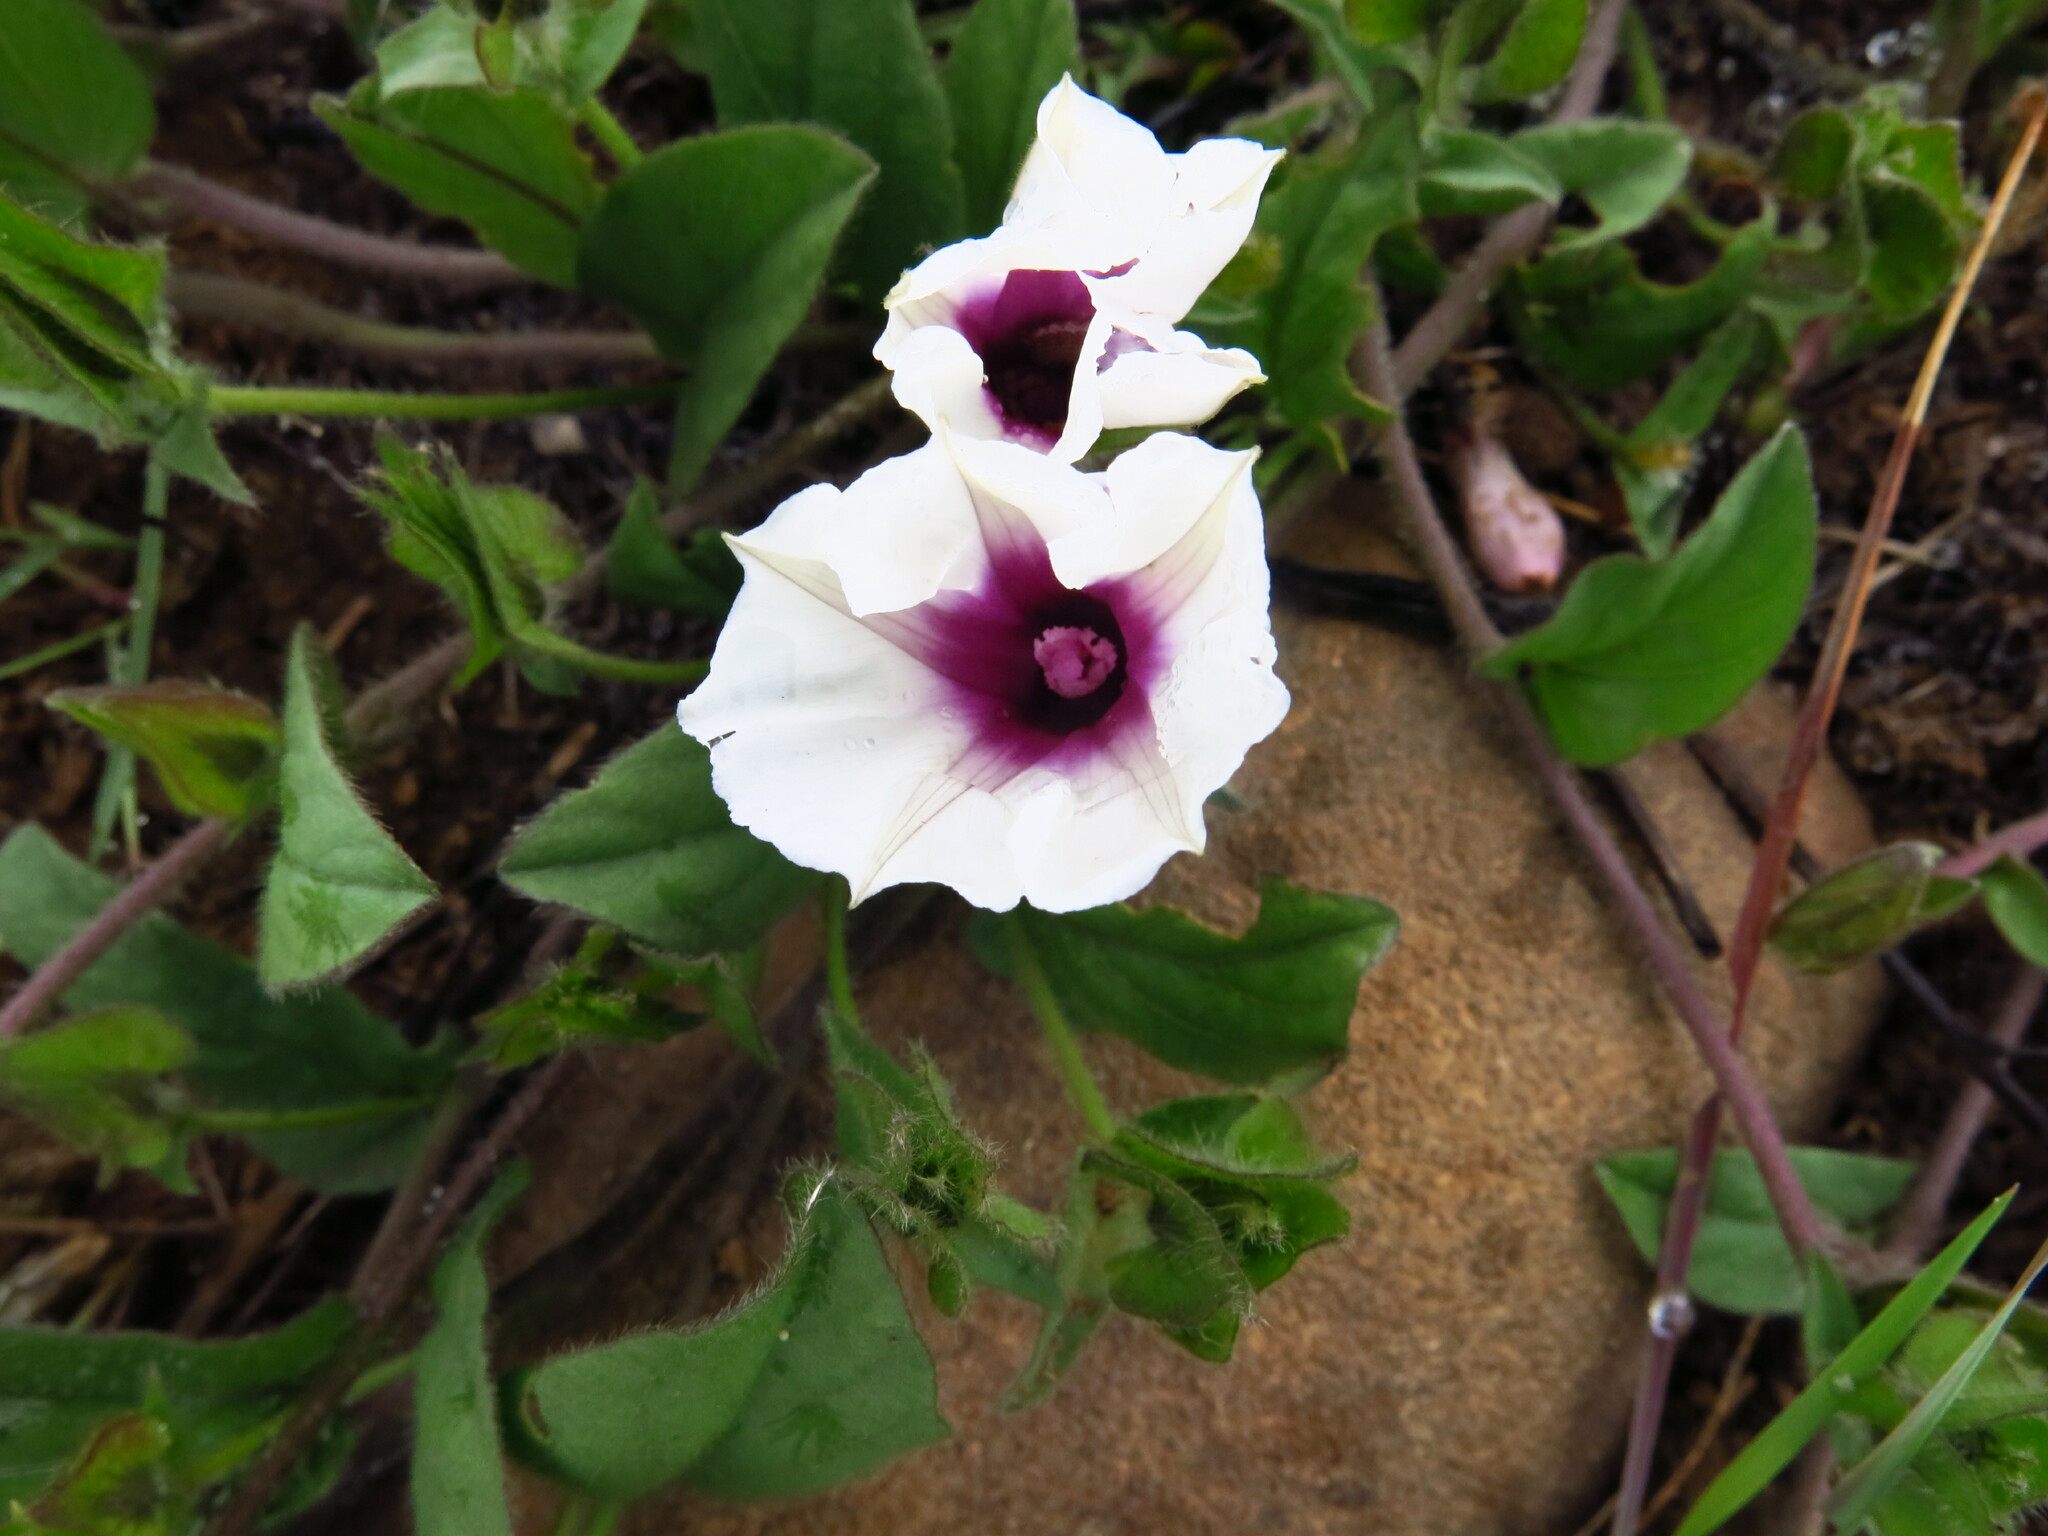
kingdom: Plantae
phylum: Tracheophyta
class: Magnoliopsida
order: Solanales
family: Convolvulaceae
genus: Ipomoea
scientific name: Ipomoea crassipes
